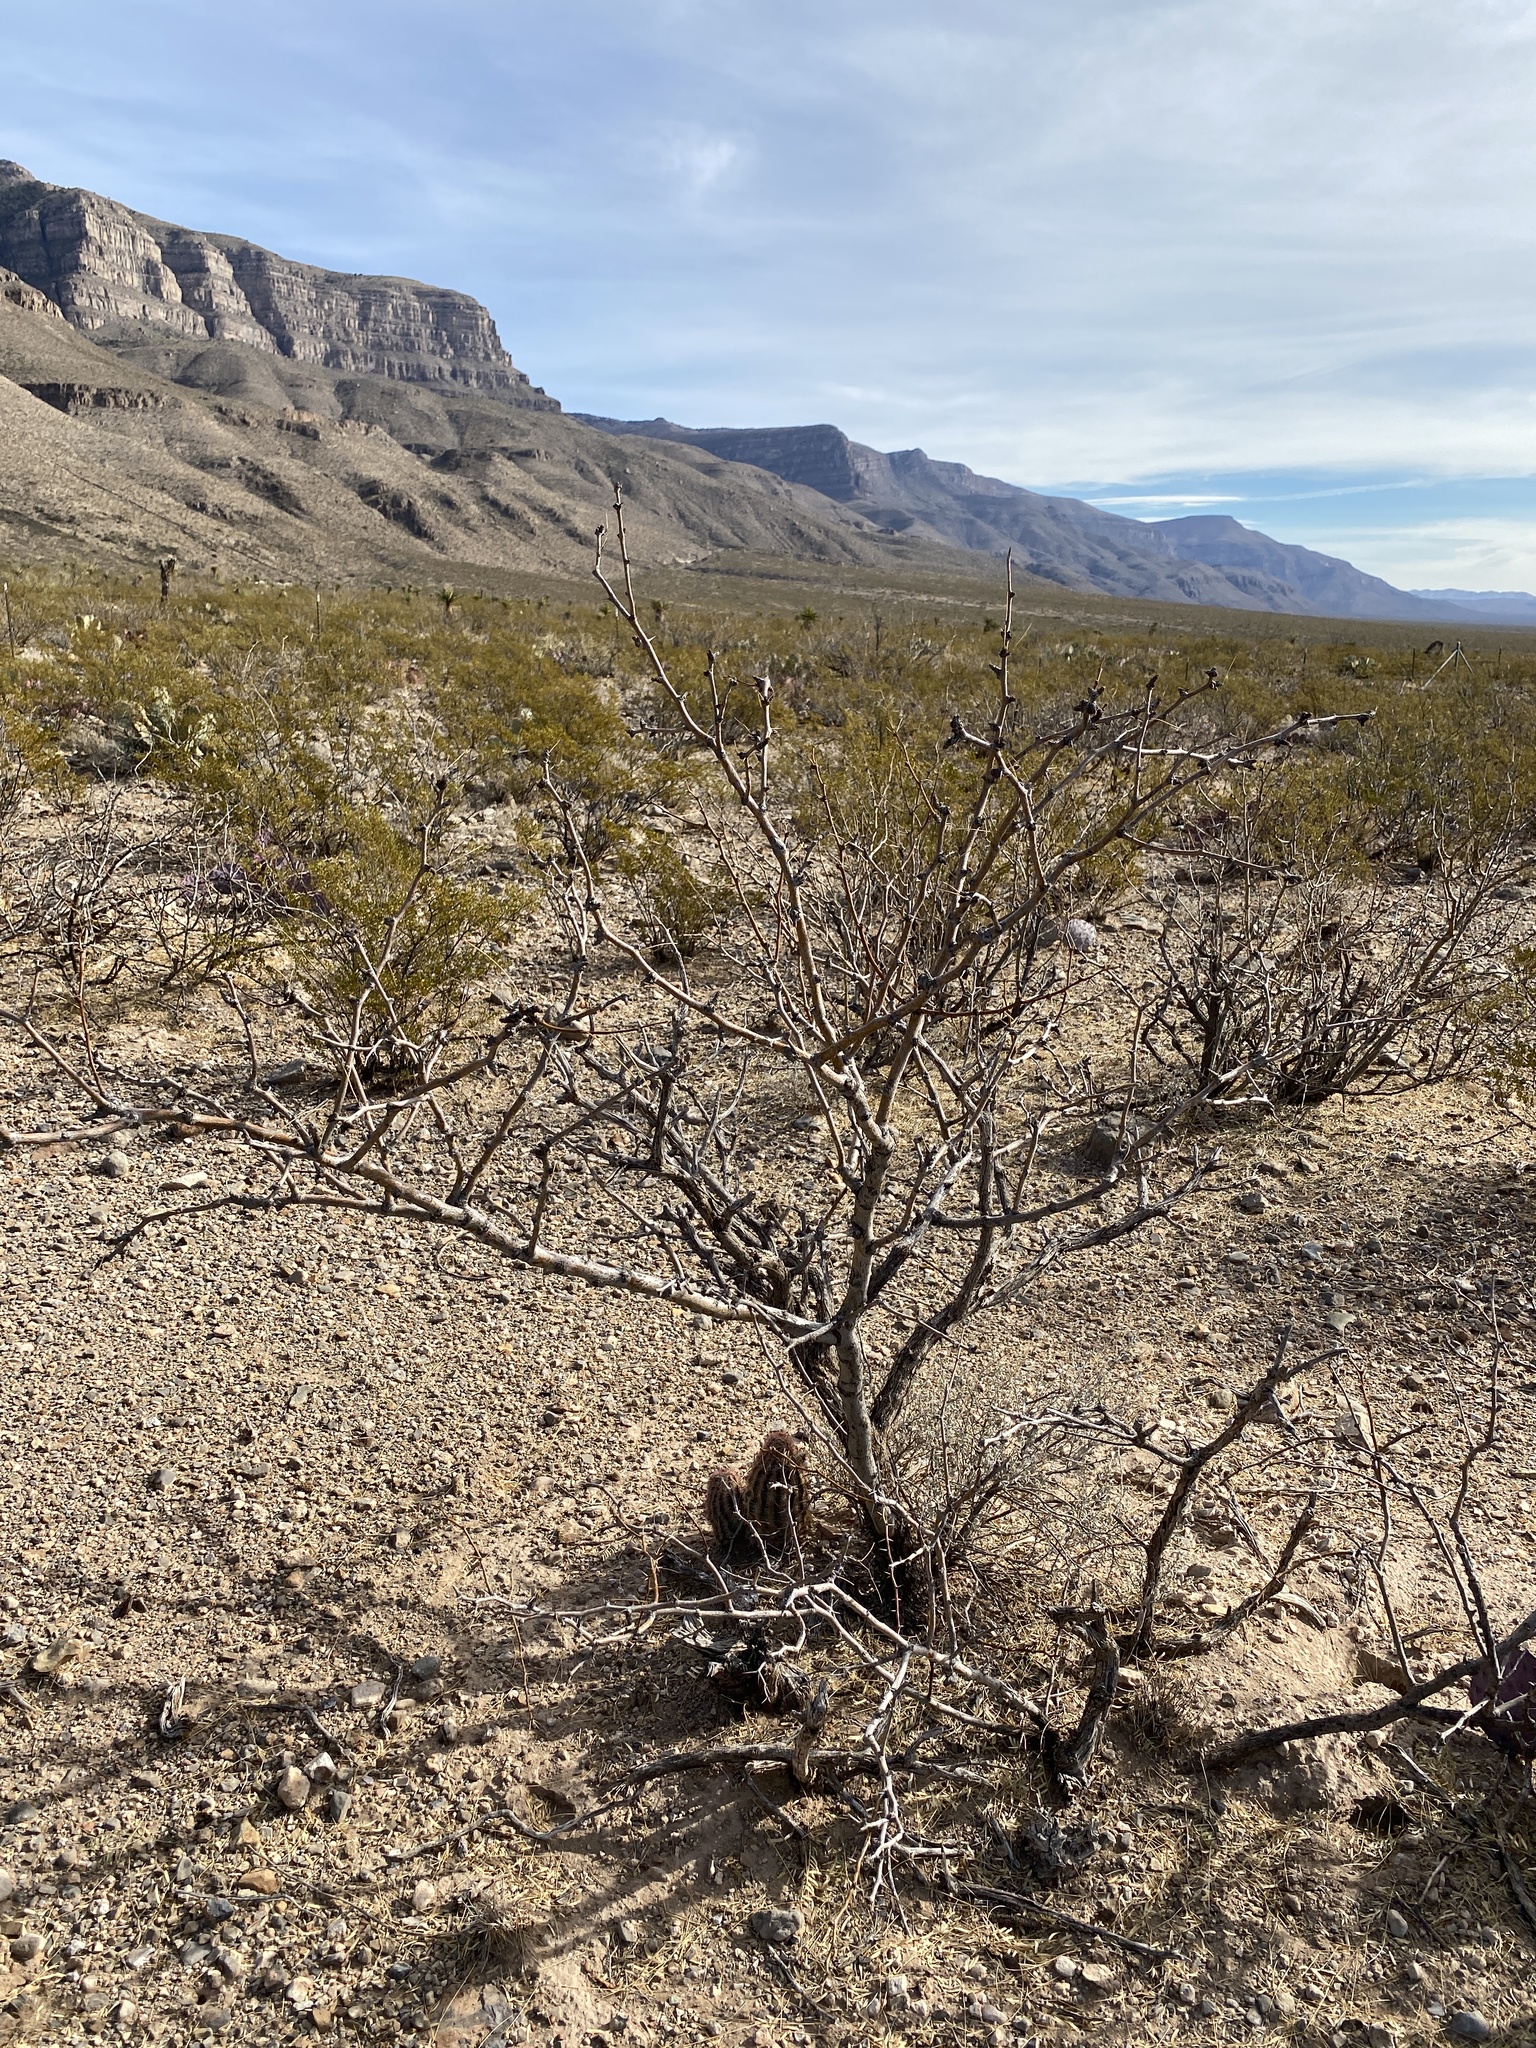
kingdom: Plantae
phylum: Tracheophyta
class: Magnoliopsida
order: Zygophyllales
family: Zygophyllaceae
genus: Larrea
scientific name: Larrea tridentata
